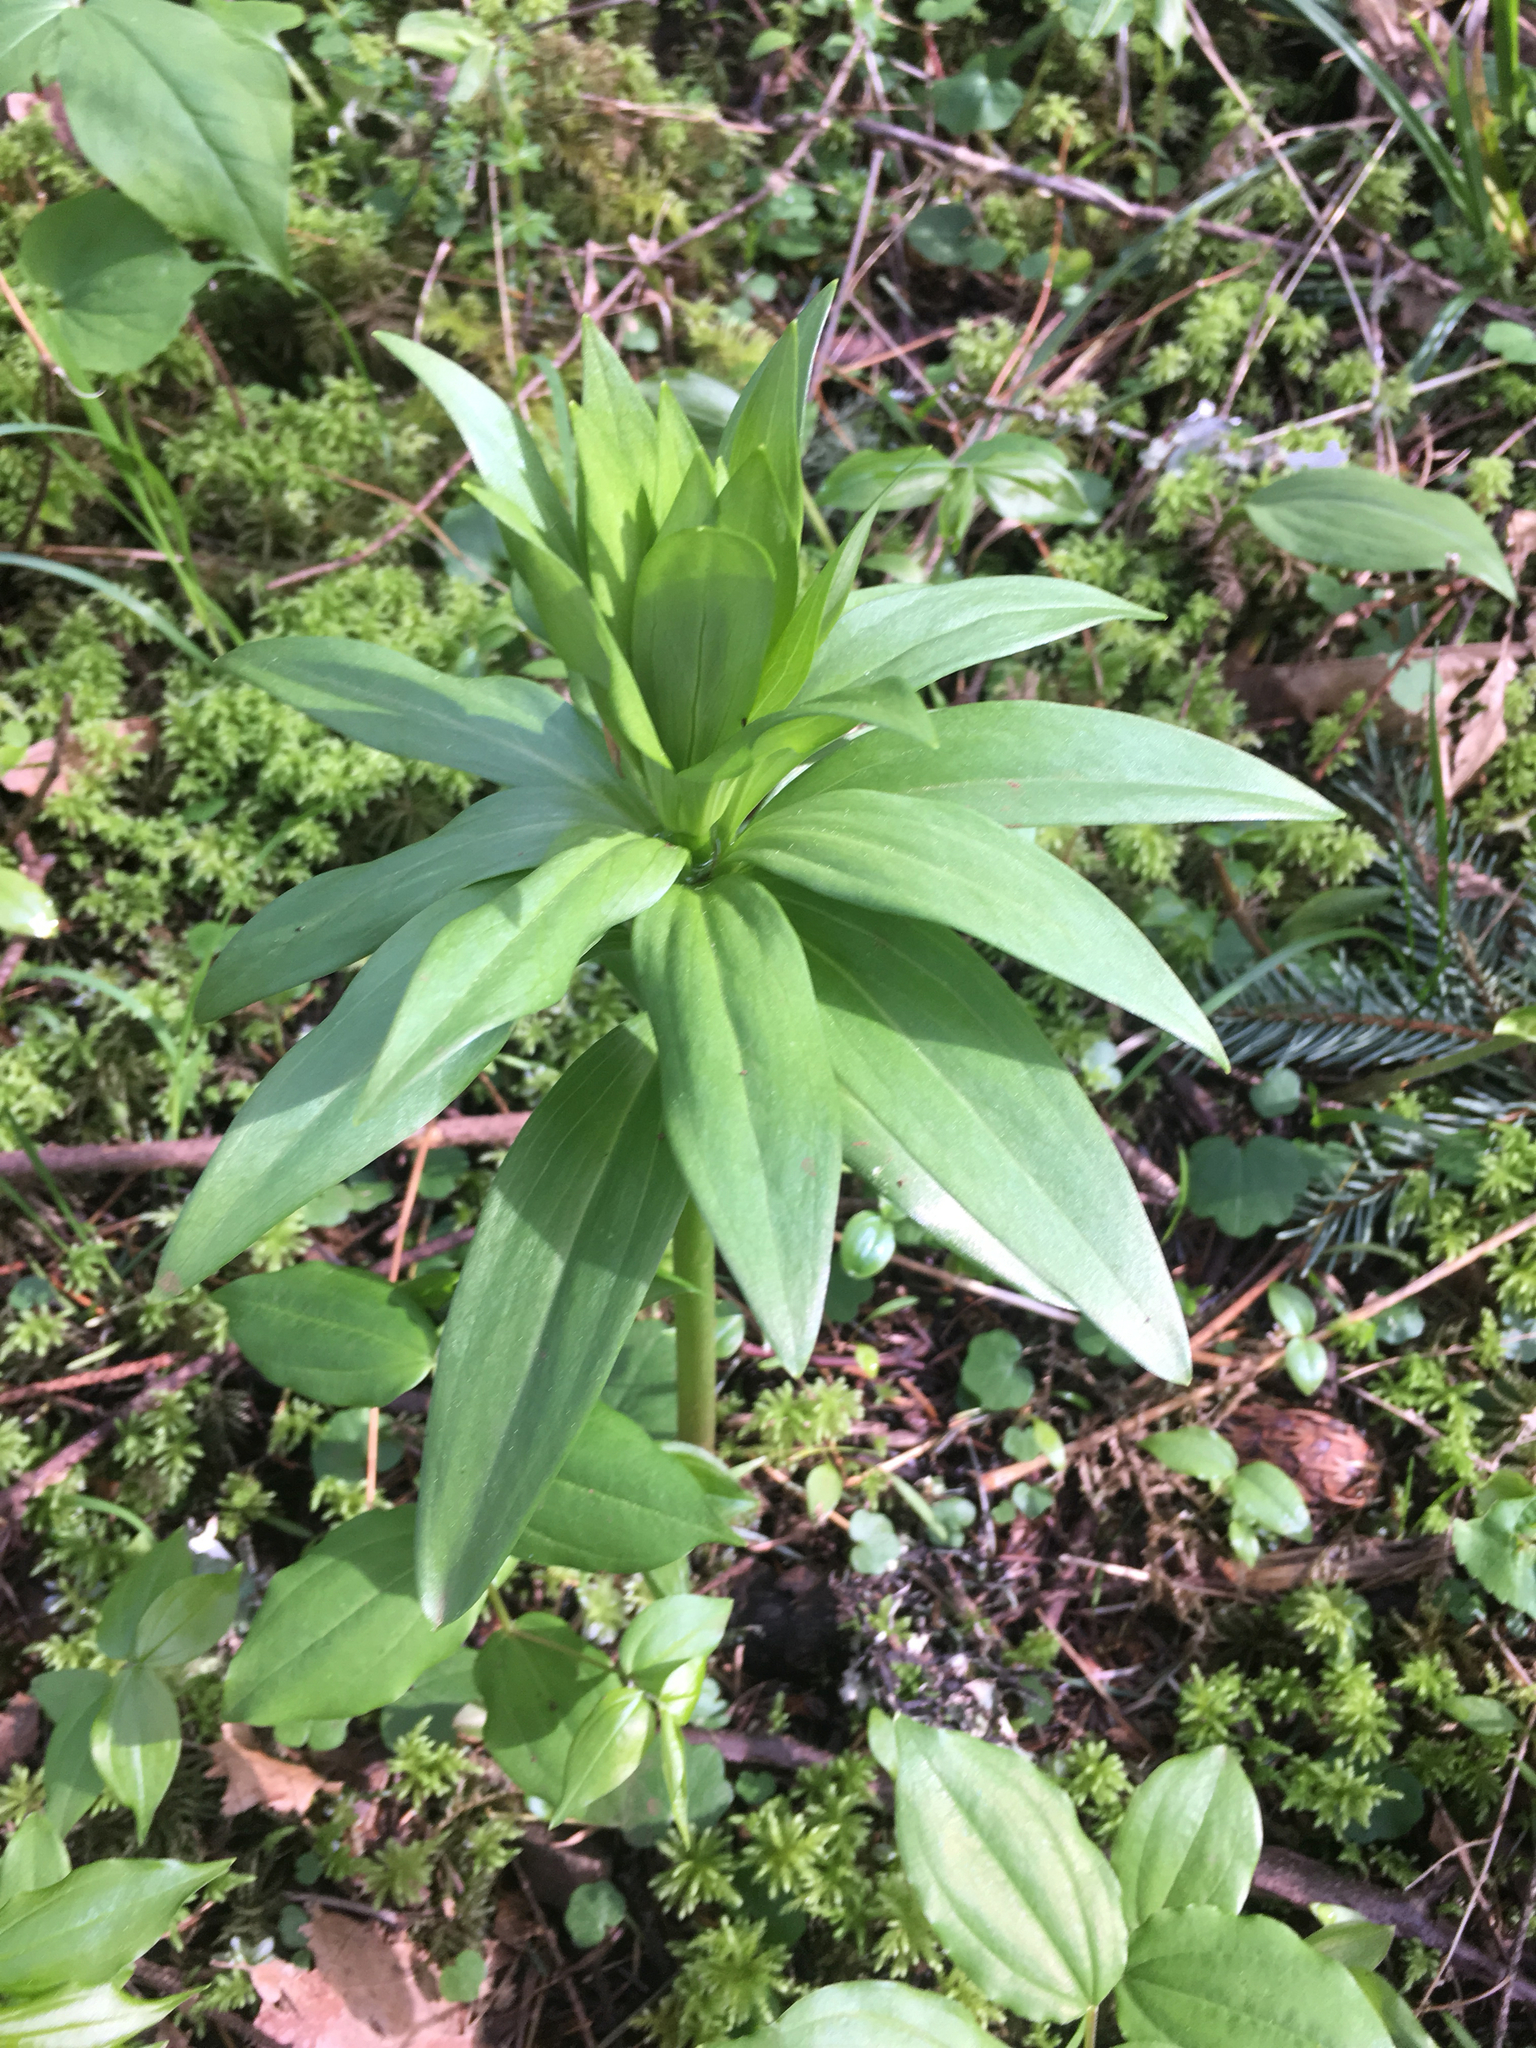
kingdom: Plantae
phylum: Tracheophyta
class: Liliopsida
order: Liliales
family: Liliaceae
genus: Lilium
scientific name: Lilium columbianum
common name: Columbia lily
